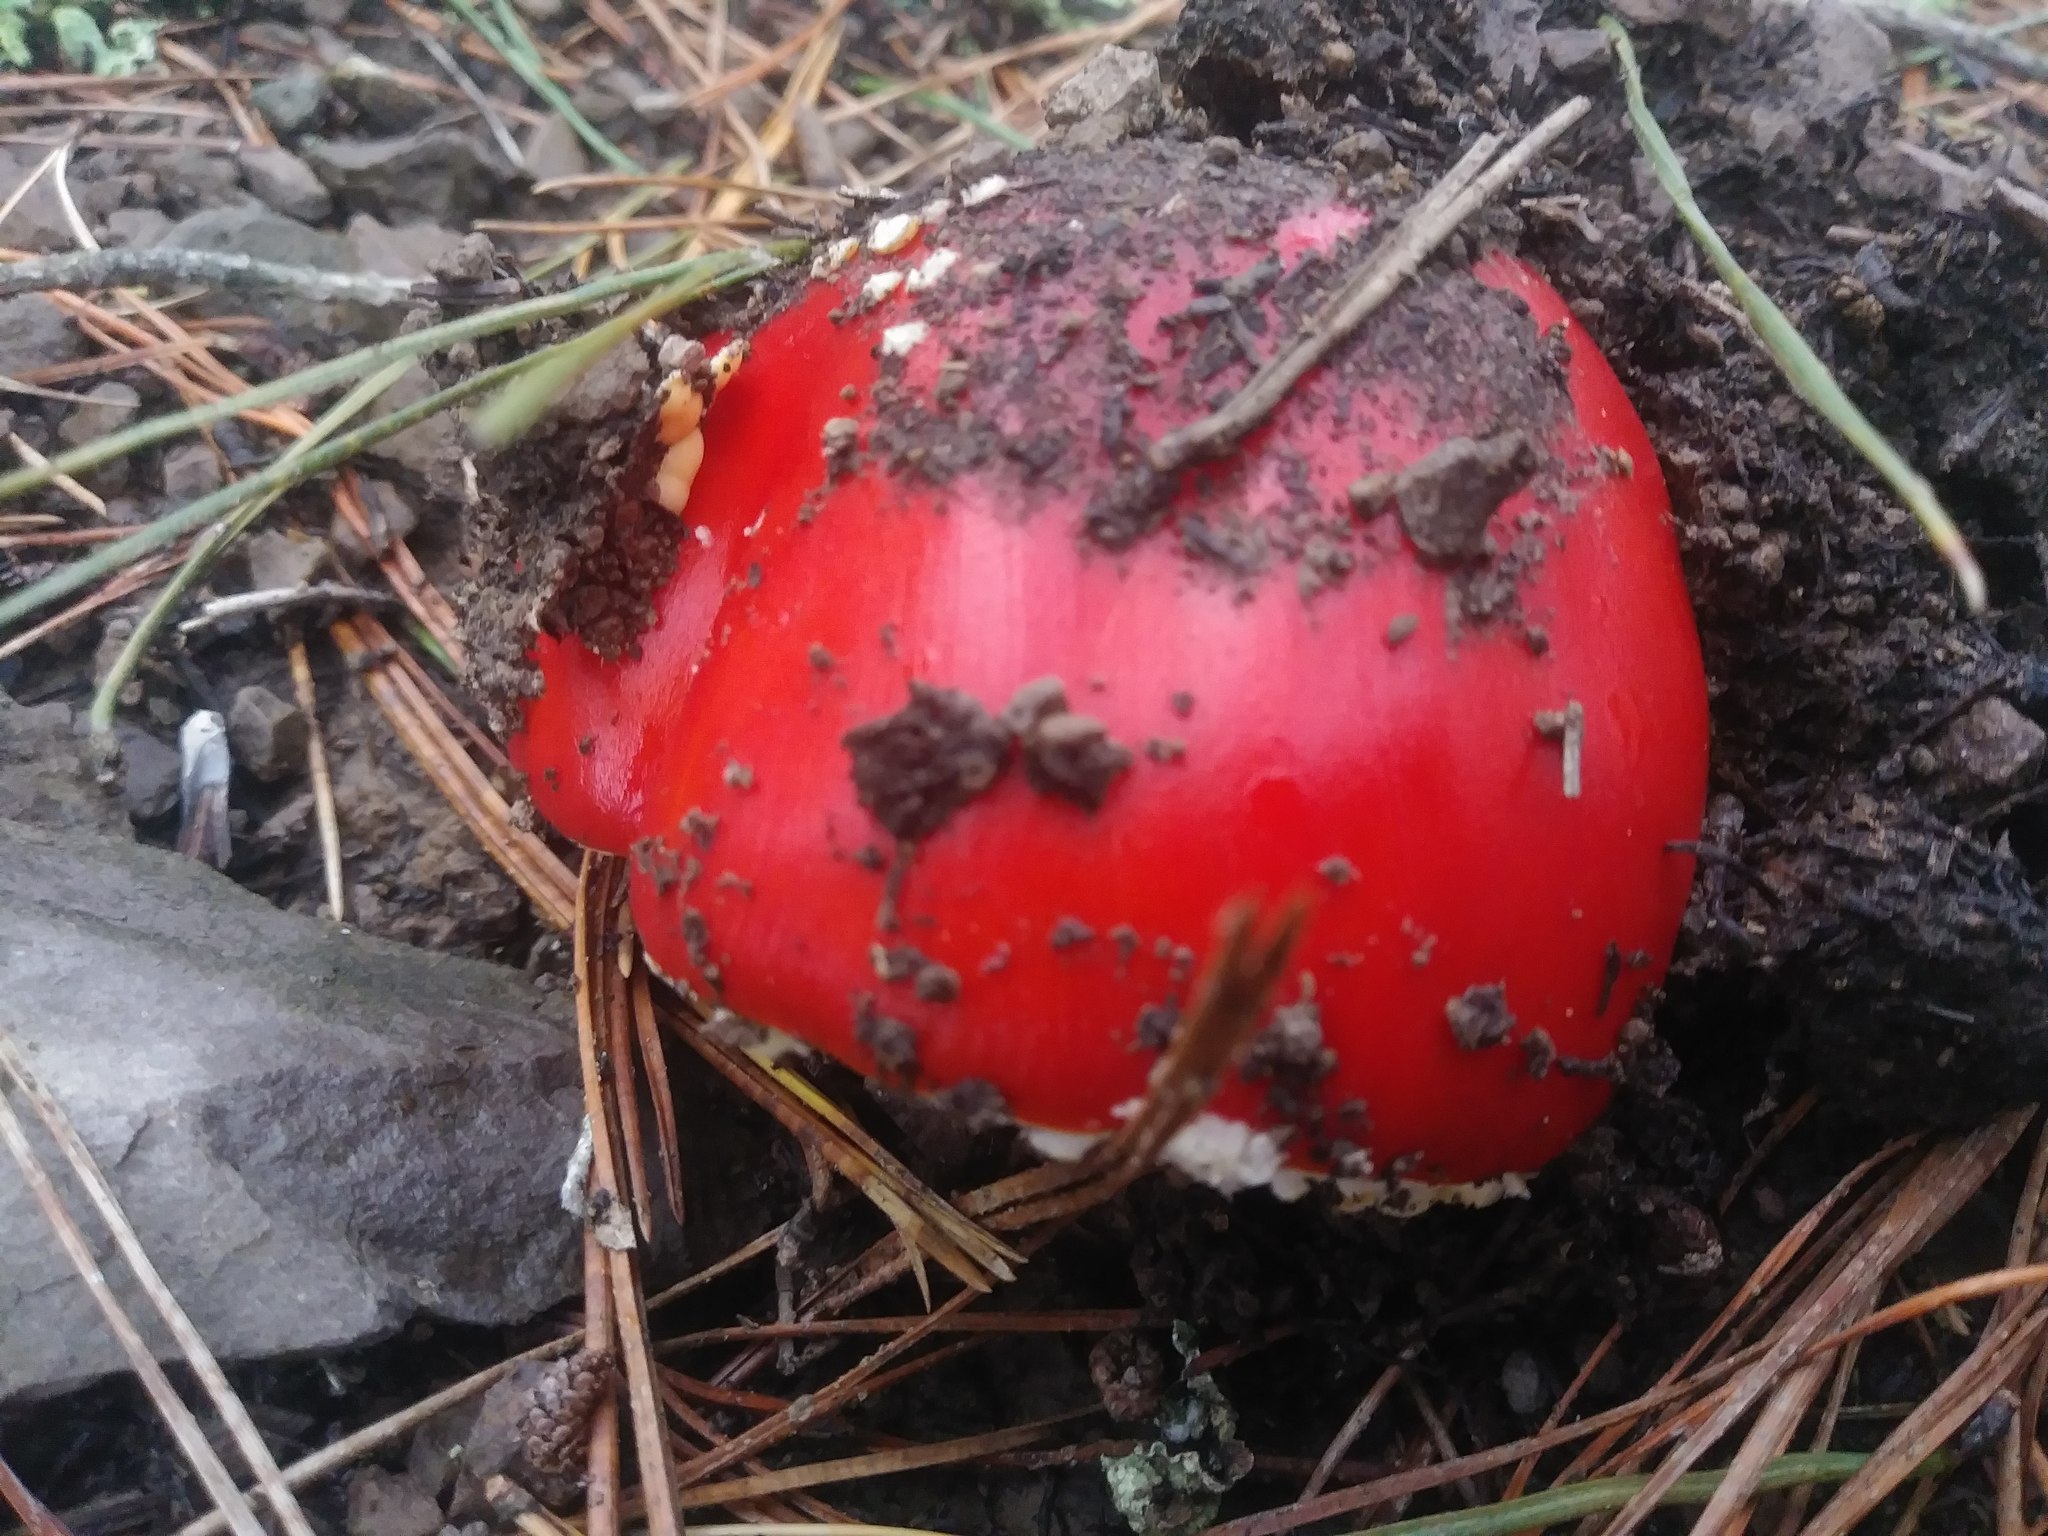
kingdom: Fungi
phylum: Basidiomycota
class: Agaricomycetes
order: Agaricales
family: Amanitaceae
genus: Amanita
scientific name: Amanita muscaria
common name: Fly agaric
